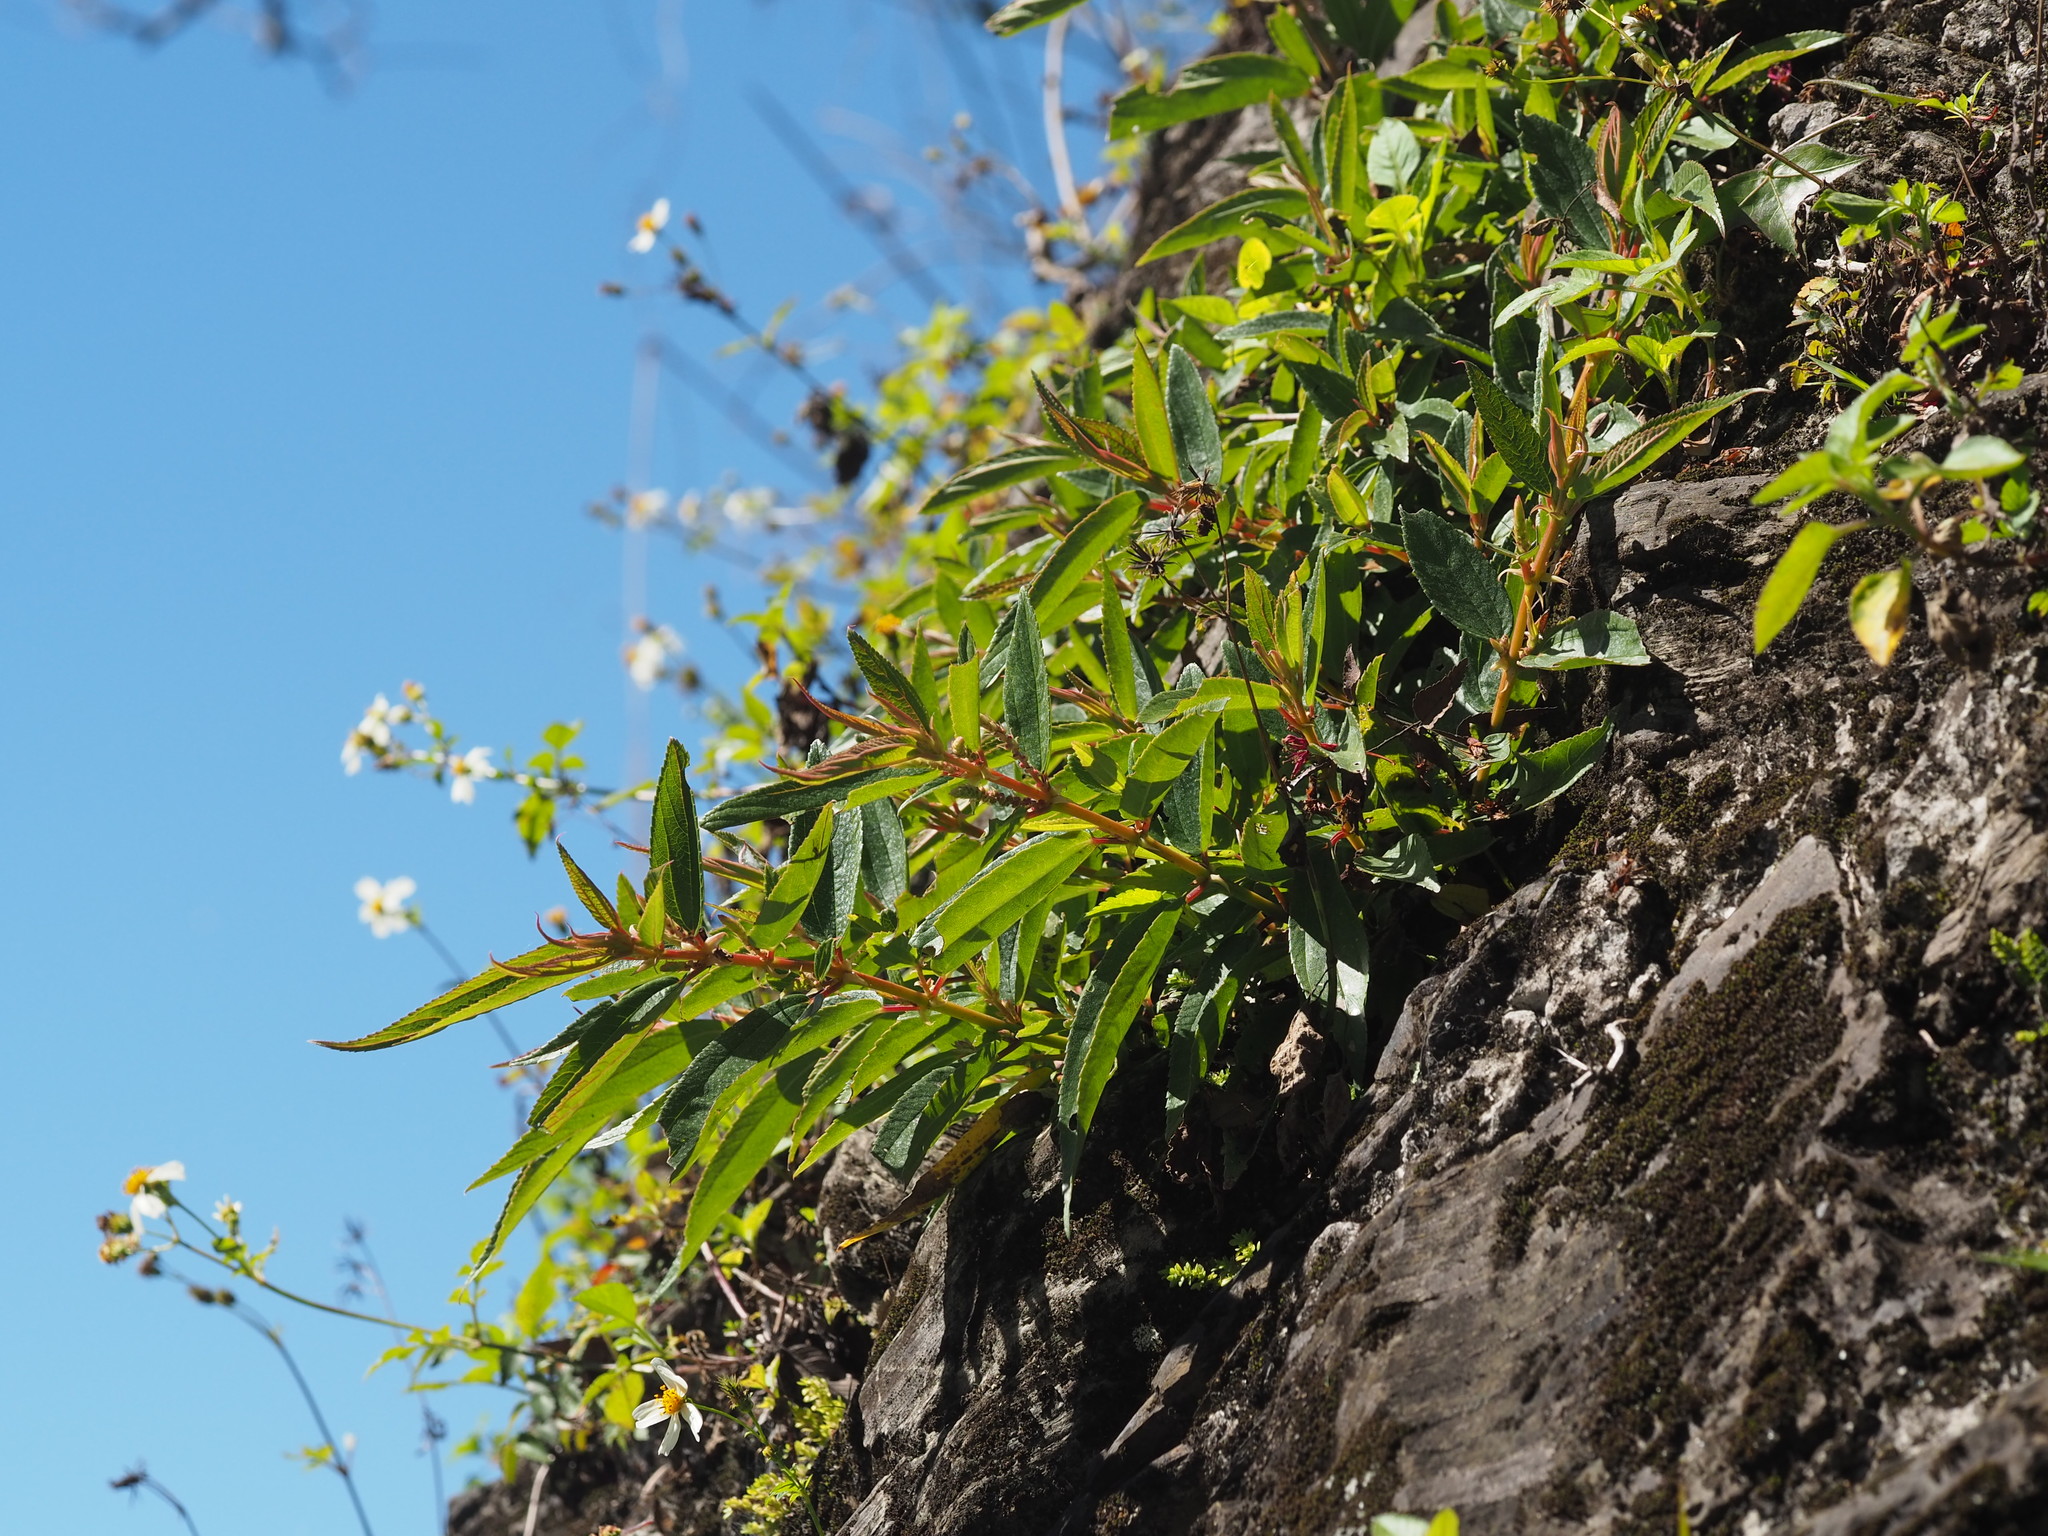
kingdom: Plantae
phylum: Tracheophyta
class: Magnoliopsida
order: Rosales
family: Urticaceae
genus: Boehmeria
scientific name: Boehmeria densiflora
